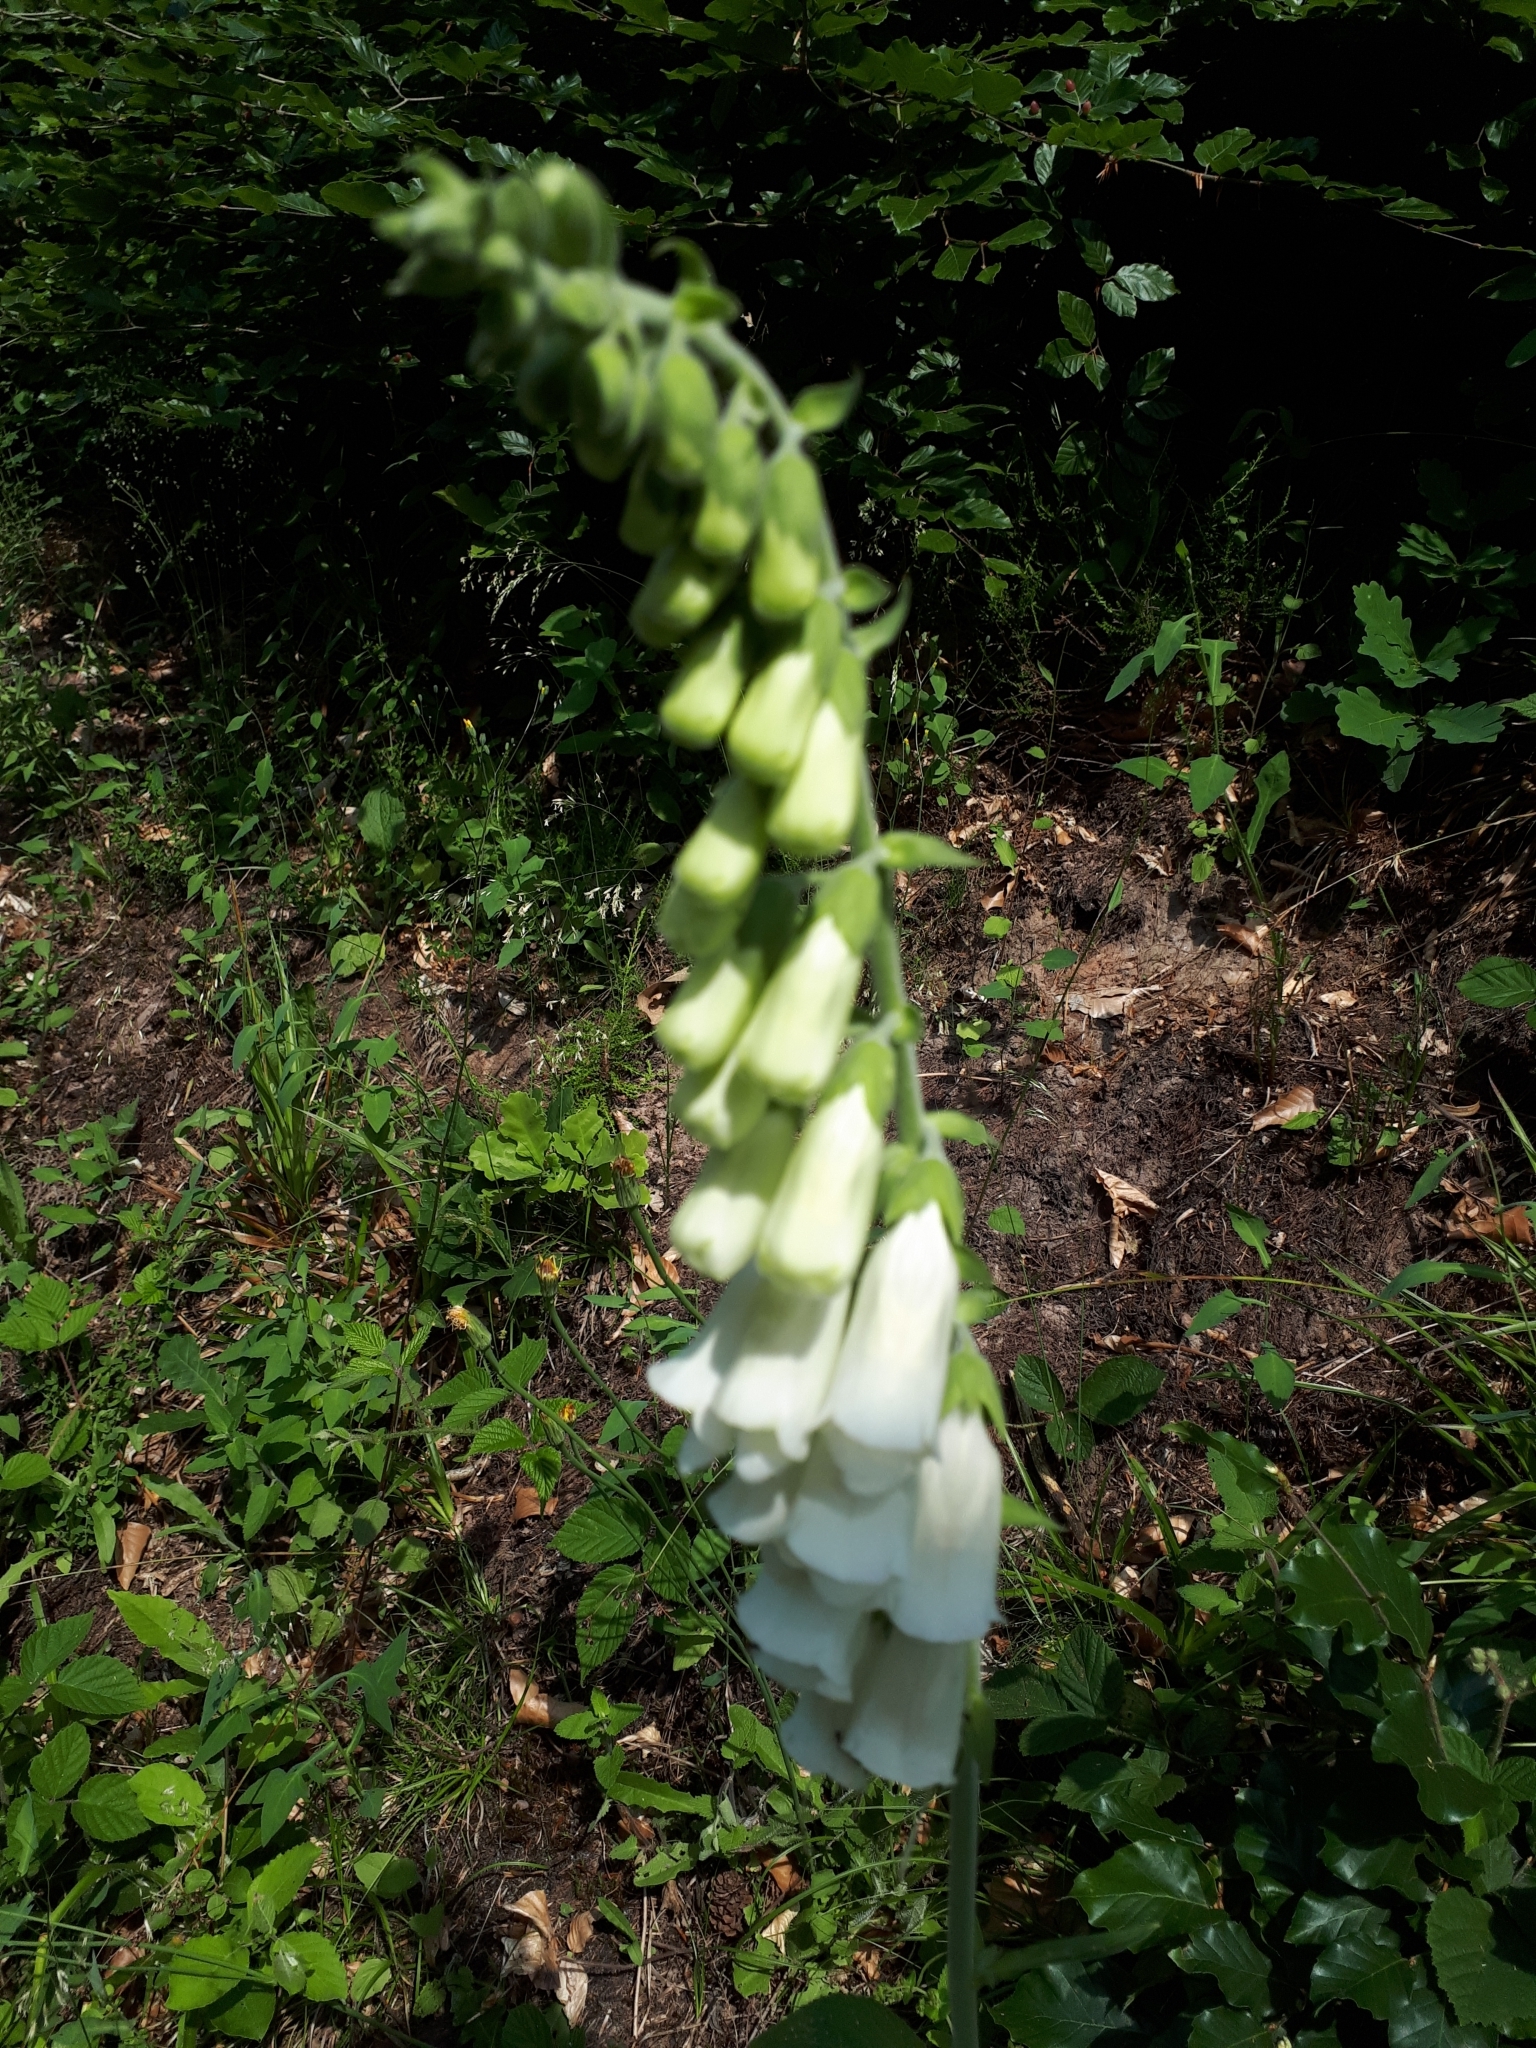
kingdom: Plantae
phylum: Tracheophyta
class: Magnoliopsida
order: Lamiales
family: Plantaginaceae
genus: Digitalis
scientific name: Digitalis purpurea
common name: Foxglove
